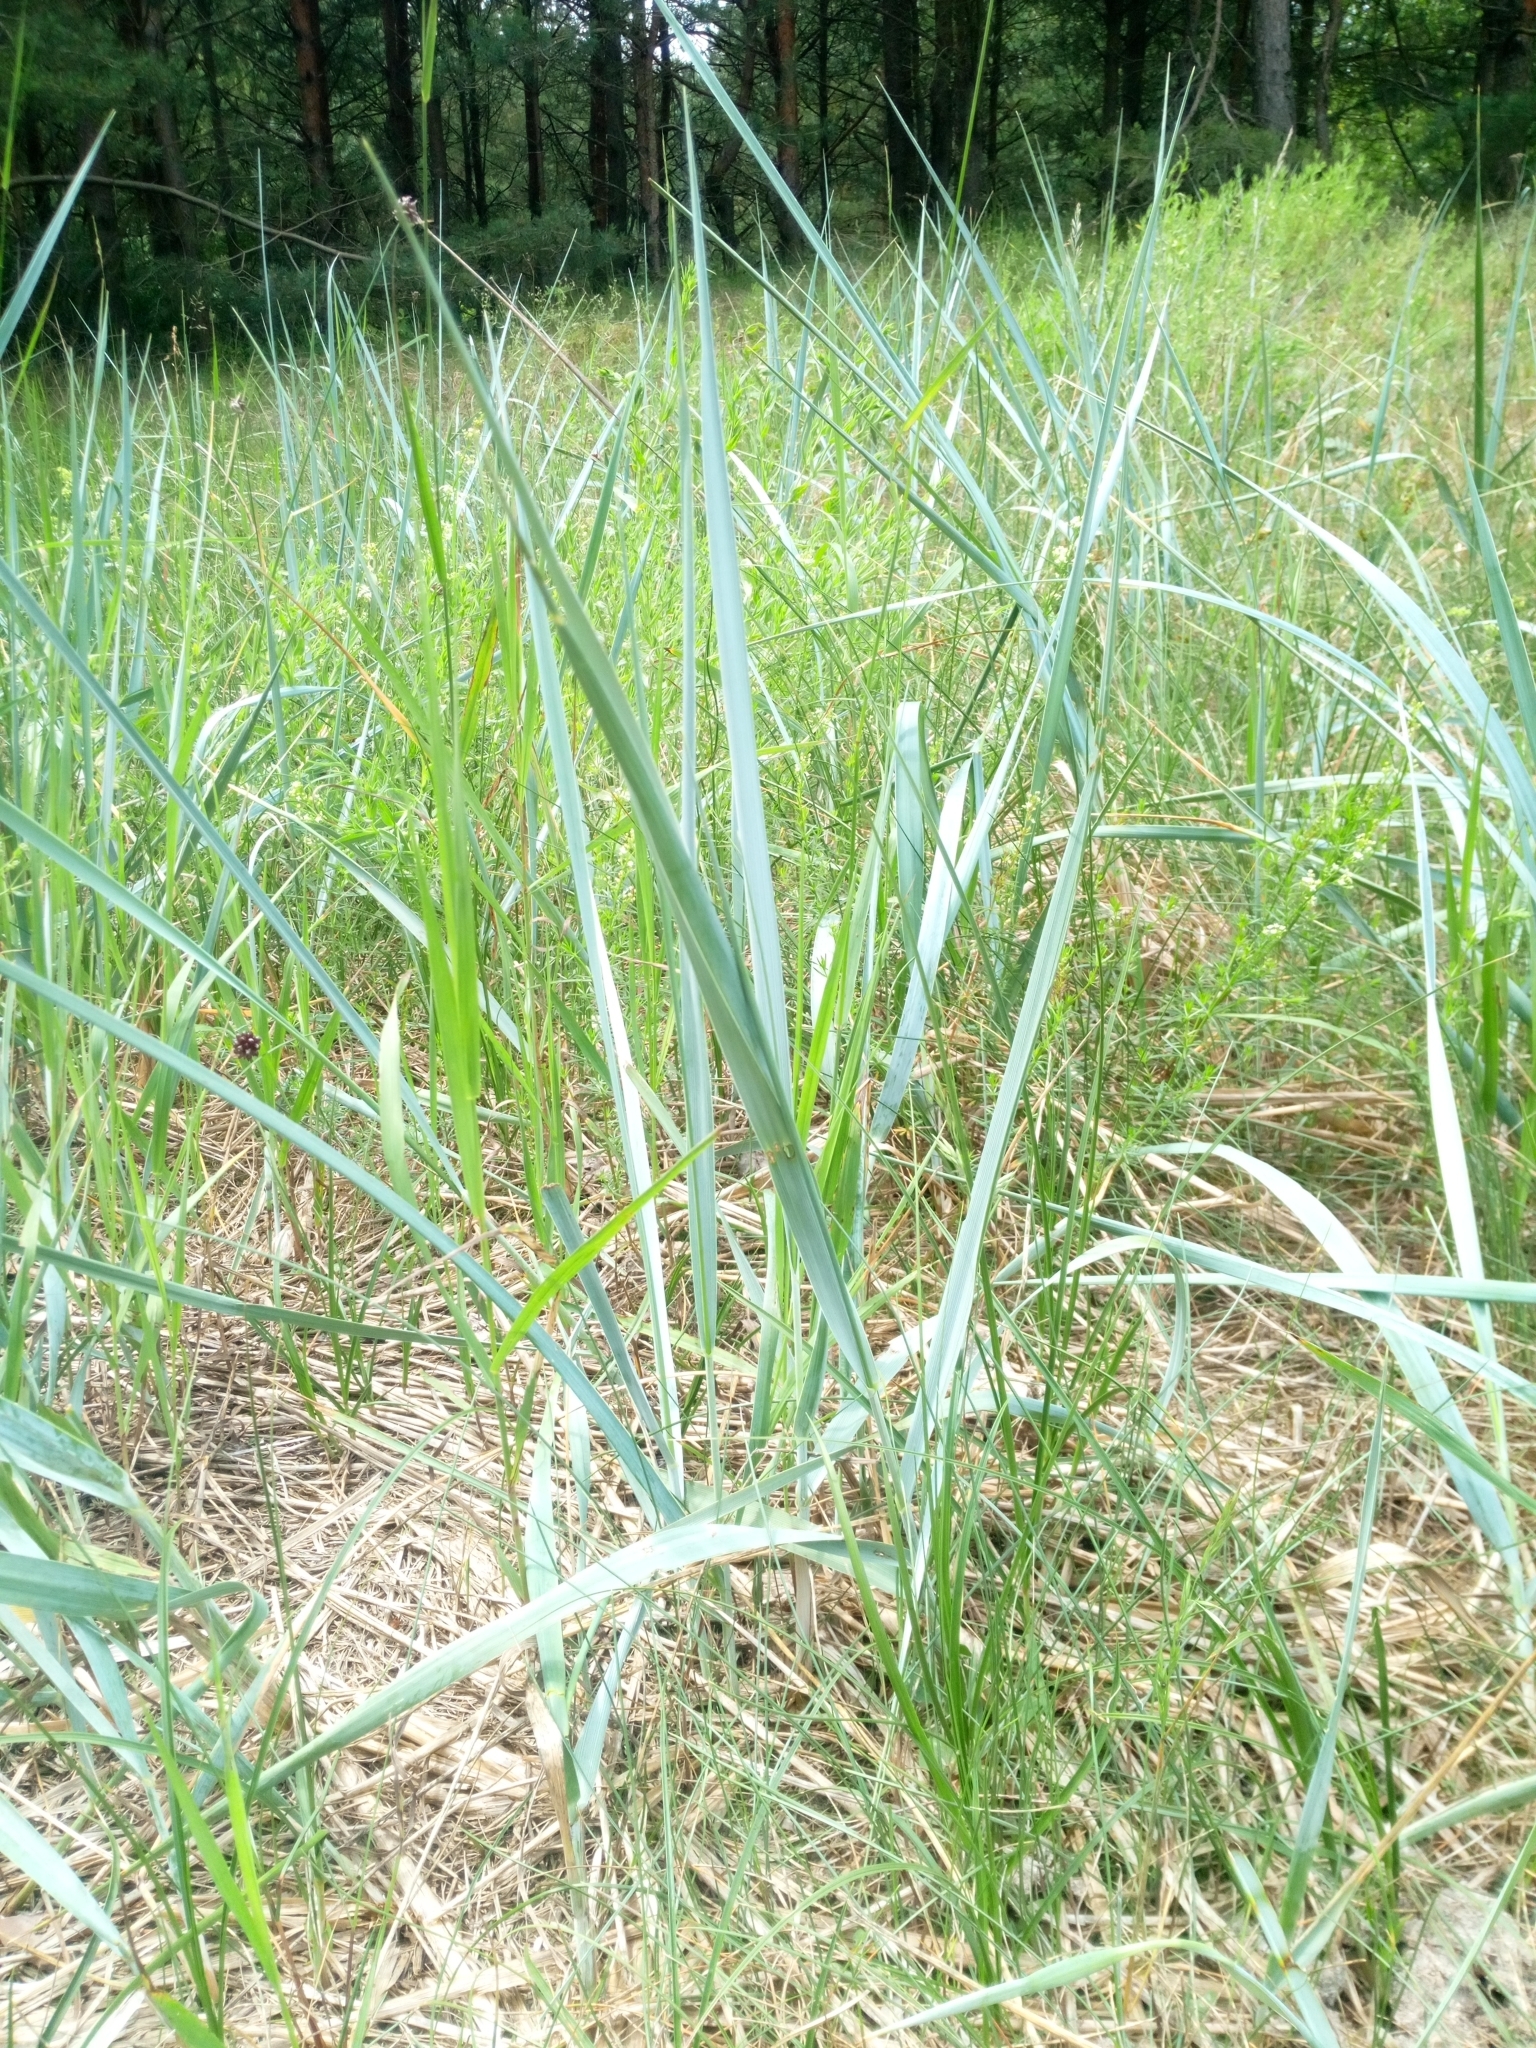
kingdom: Plantae
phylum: Tracheophyta
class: Liliopsida
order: Poales
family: Poaceae
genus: Leymus
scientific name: Leymus arenarius
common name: Lyme-grass
